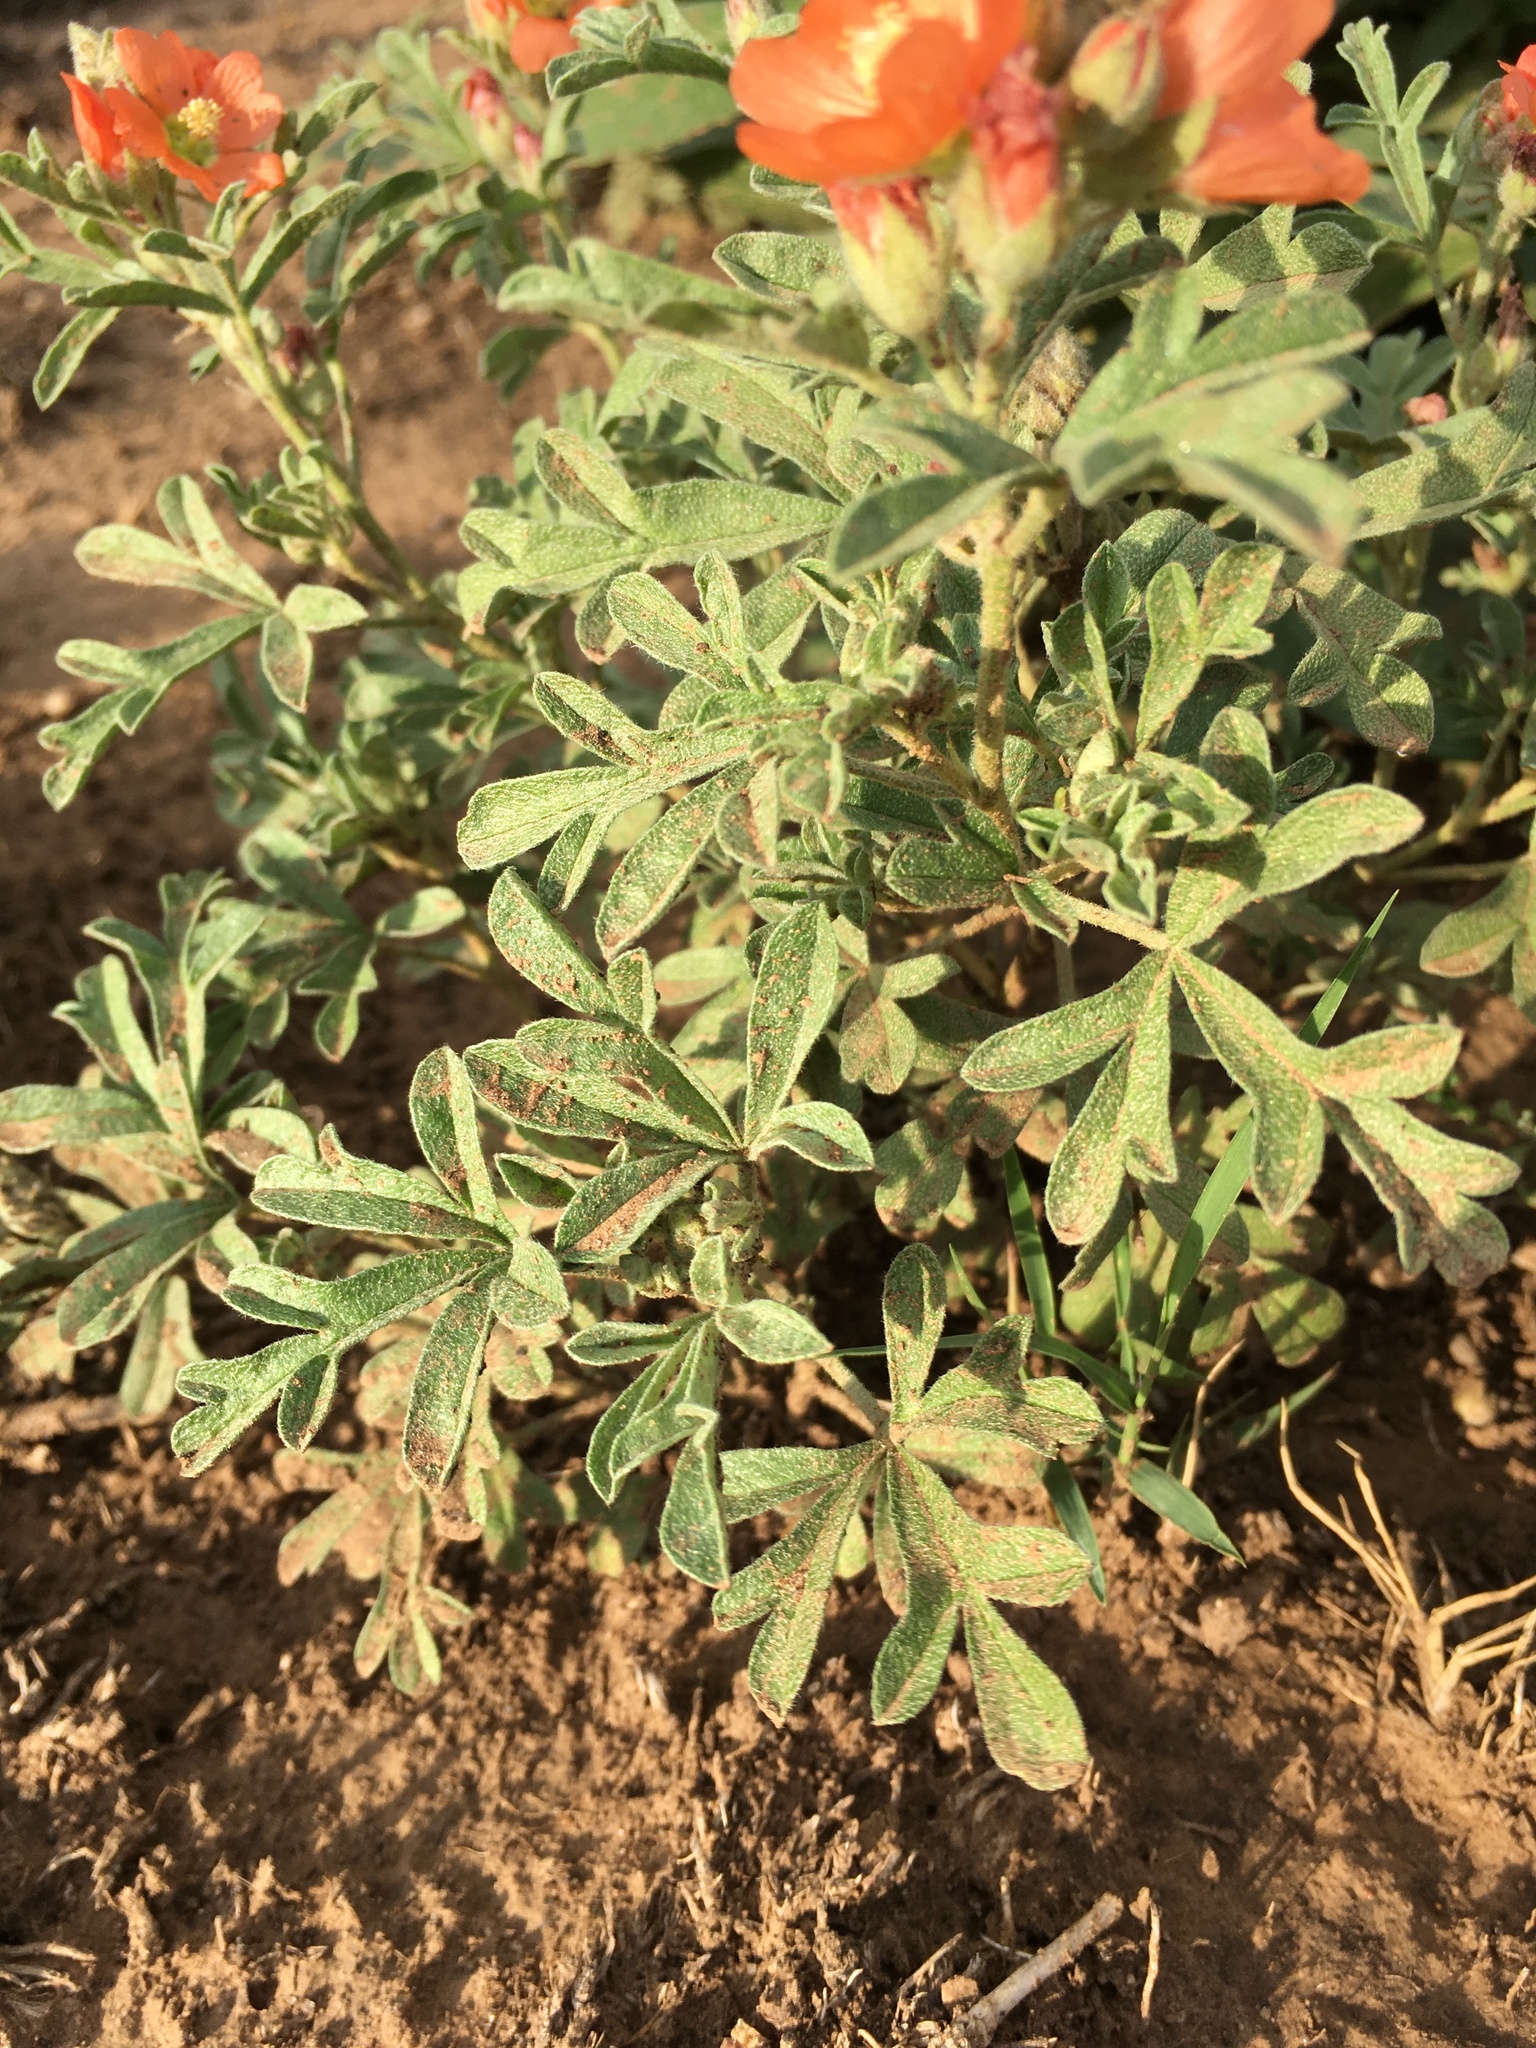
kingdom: Plantae
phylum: Tracheophyta
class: Magnoliopsida
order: Malvales
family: Malvaceae
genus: Sphaeralcea
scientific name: Sphaeralcea coccinea
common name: Moss-rose
